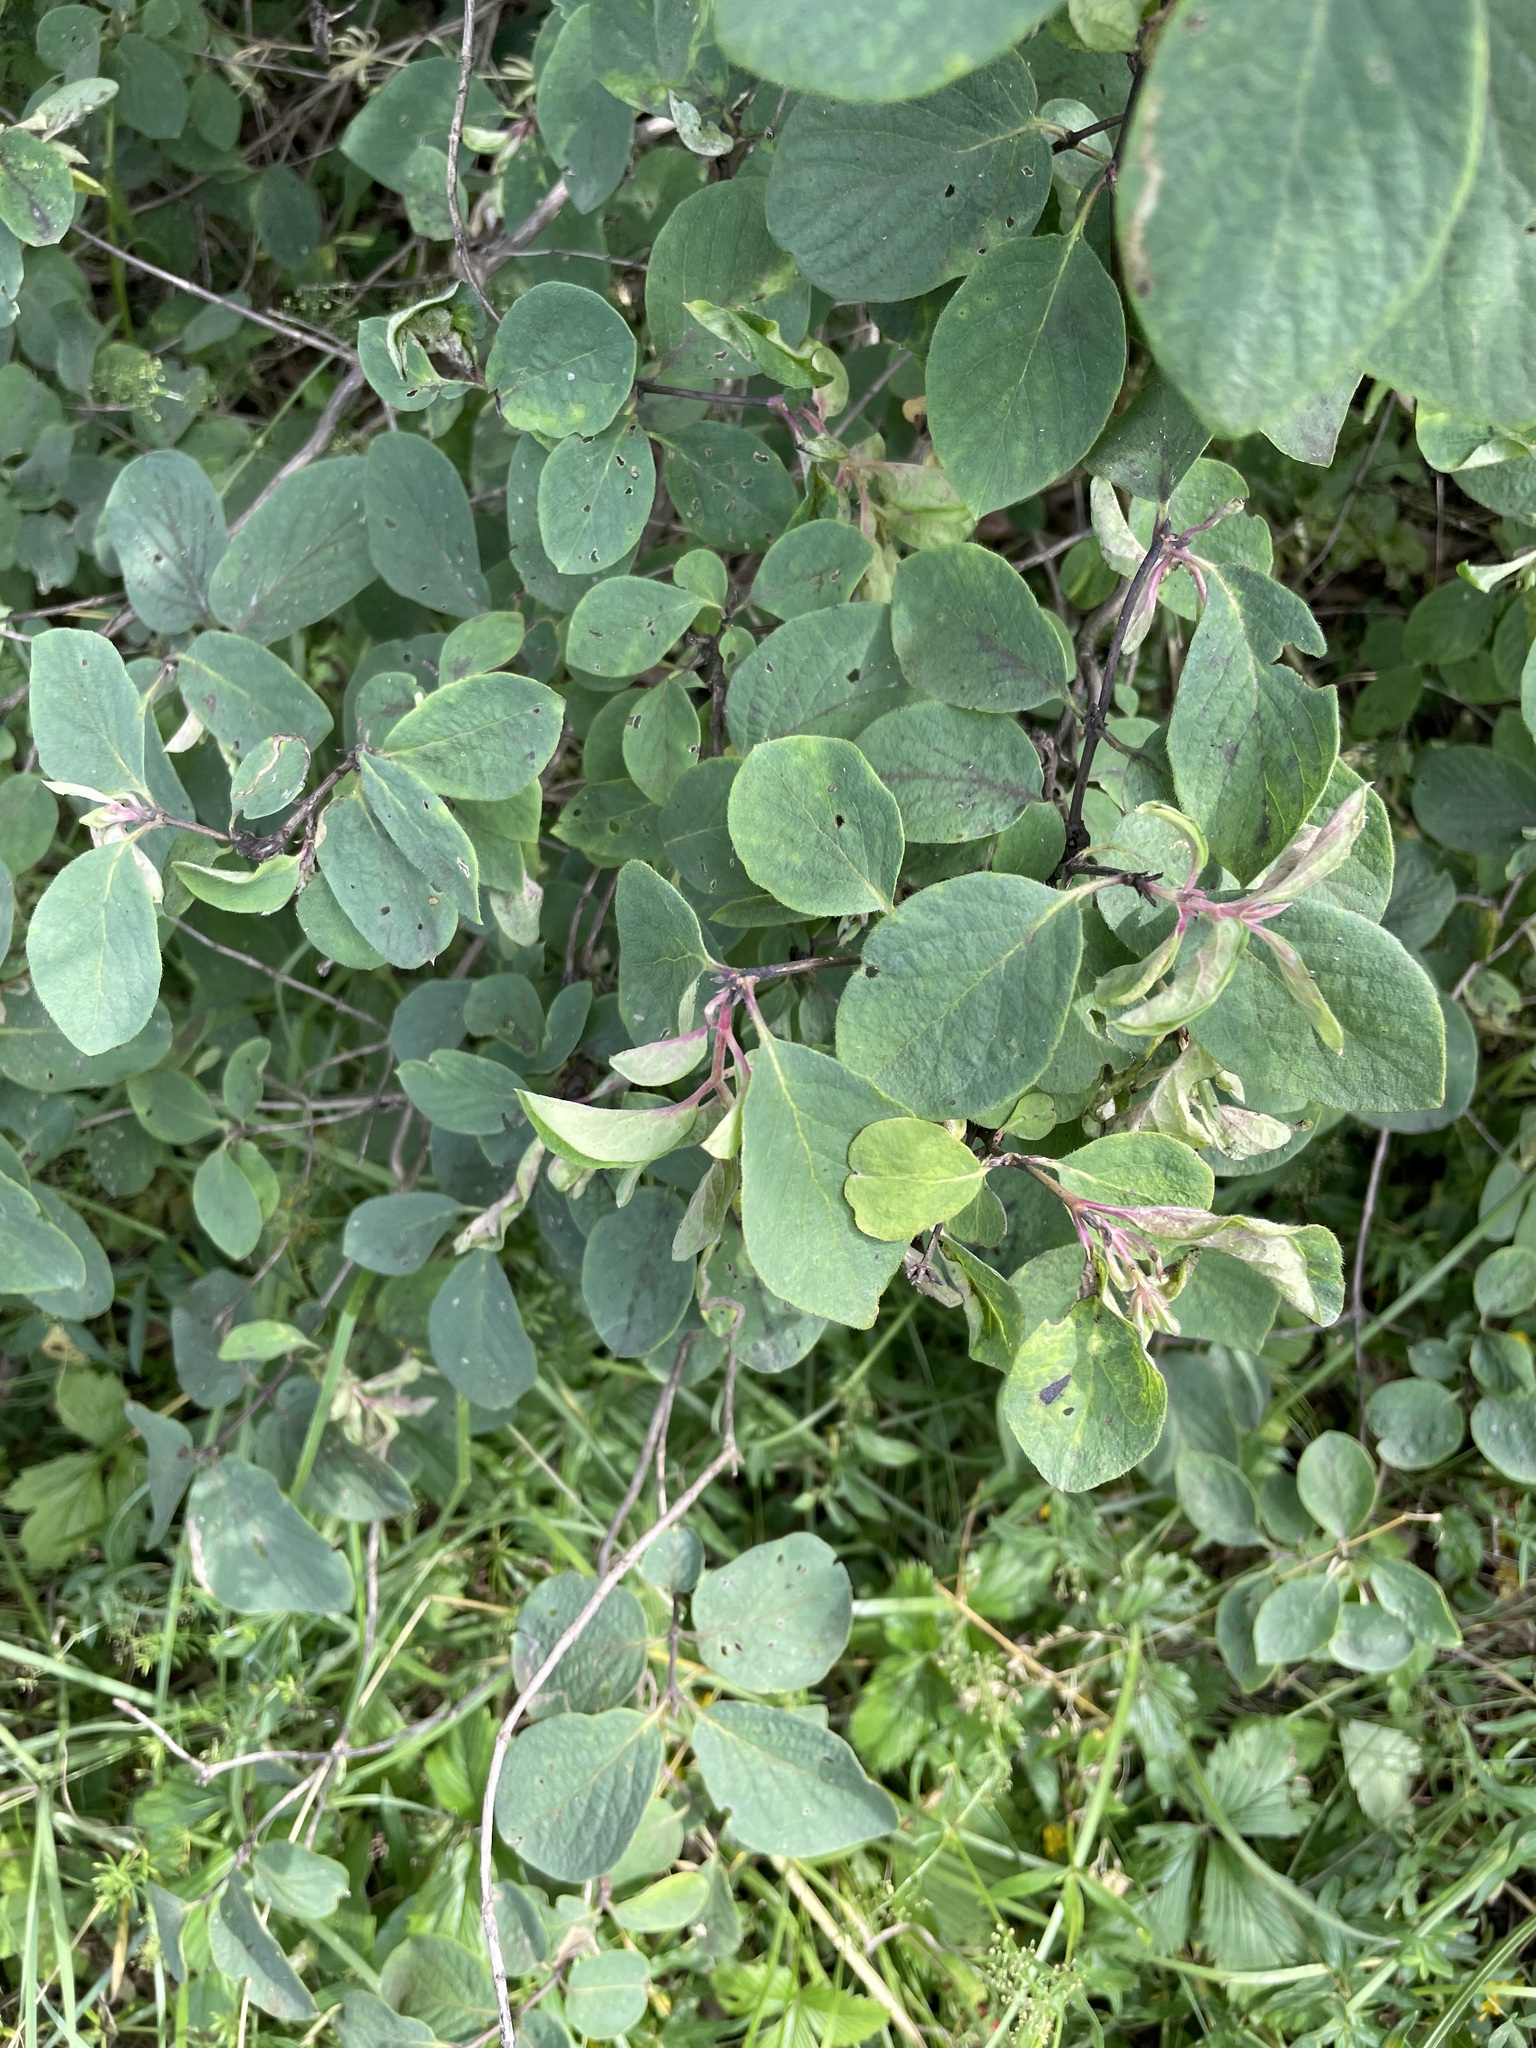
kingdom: Plantae
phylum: Tracheophyta
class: Magnoliopsida
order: Dipsacales
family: Caprifoliaceae
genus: Lonicera
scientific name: Lonicera xylosteum
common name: Fly honeysuckle
